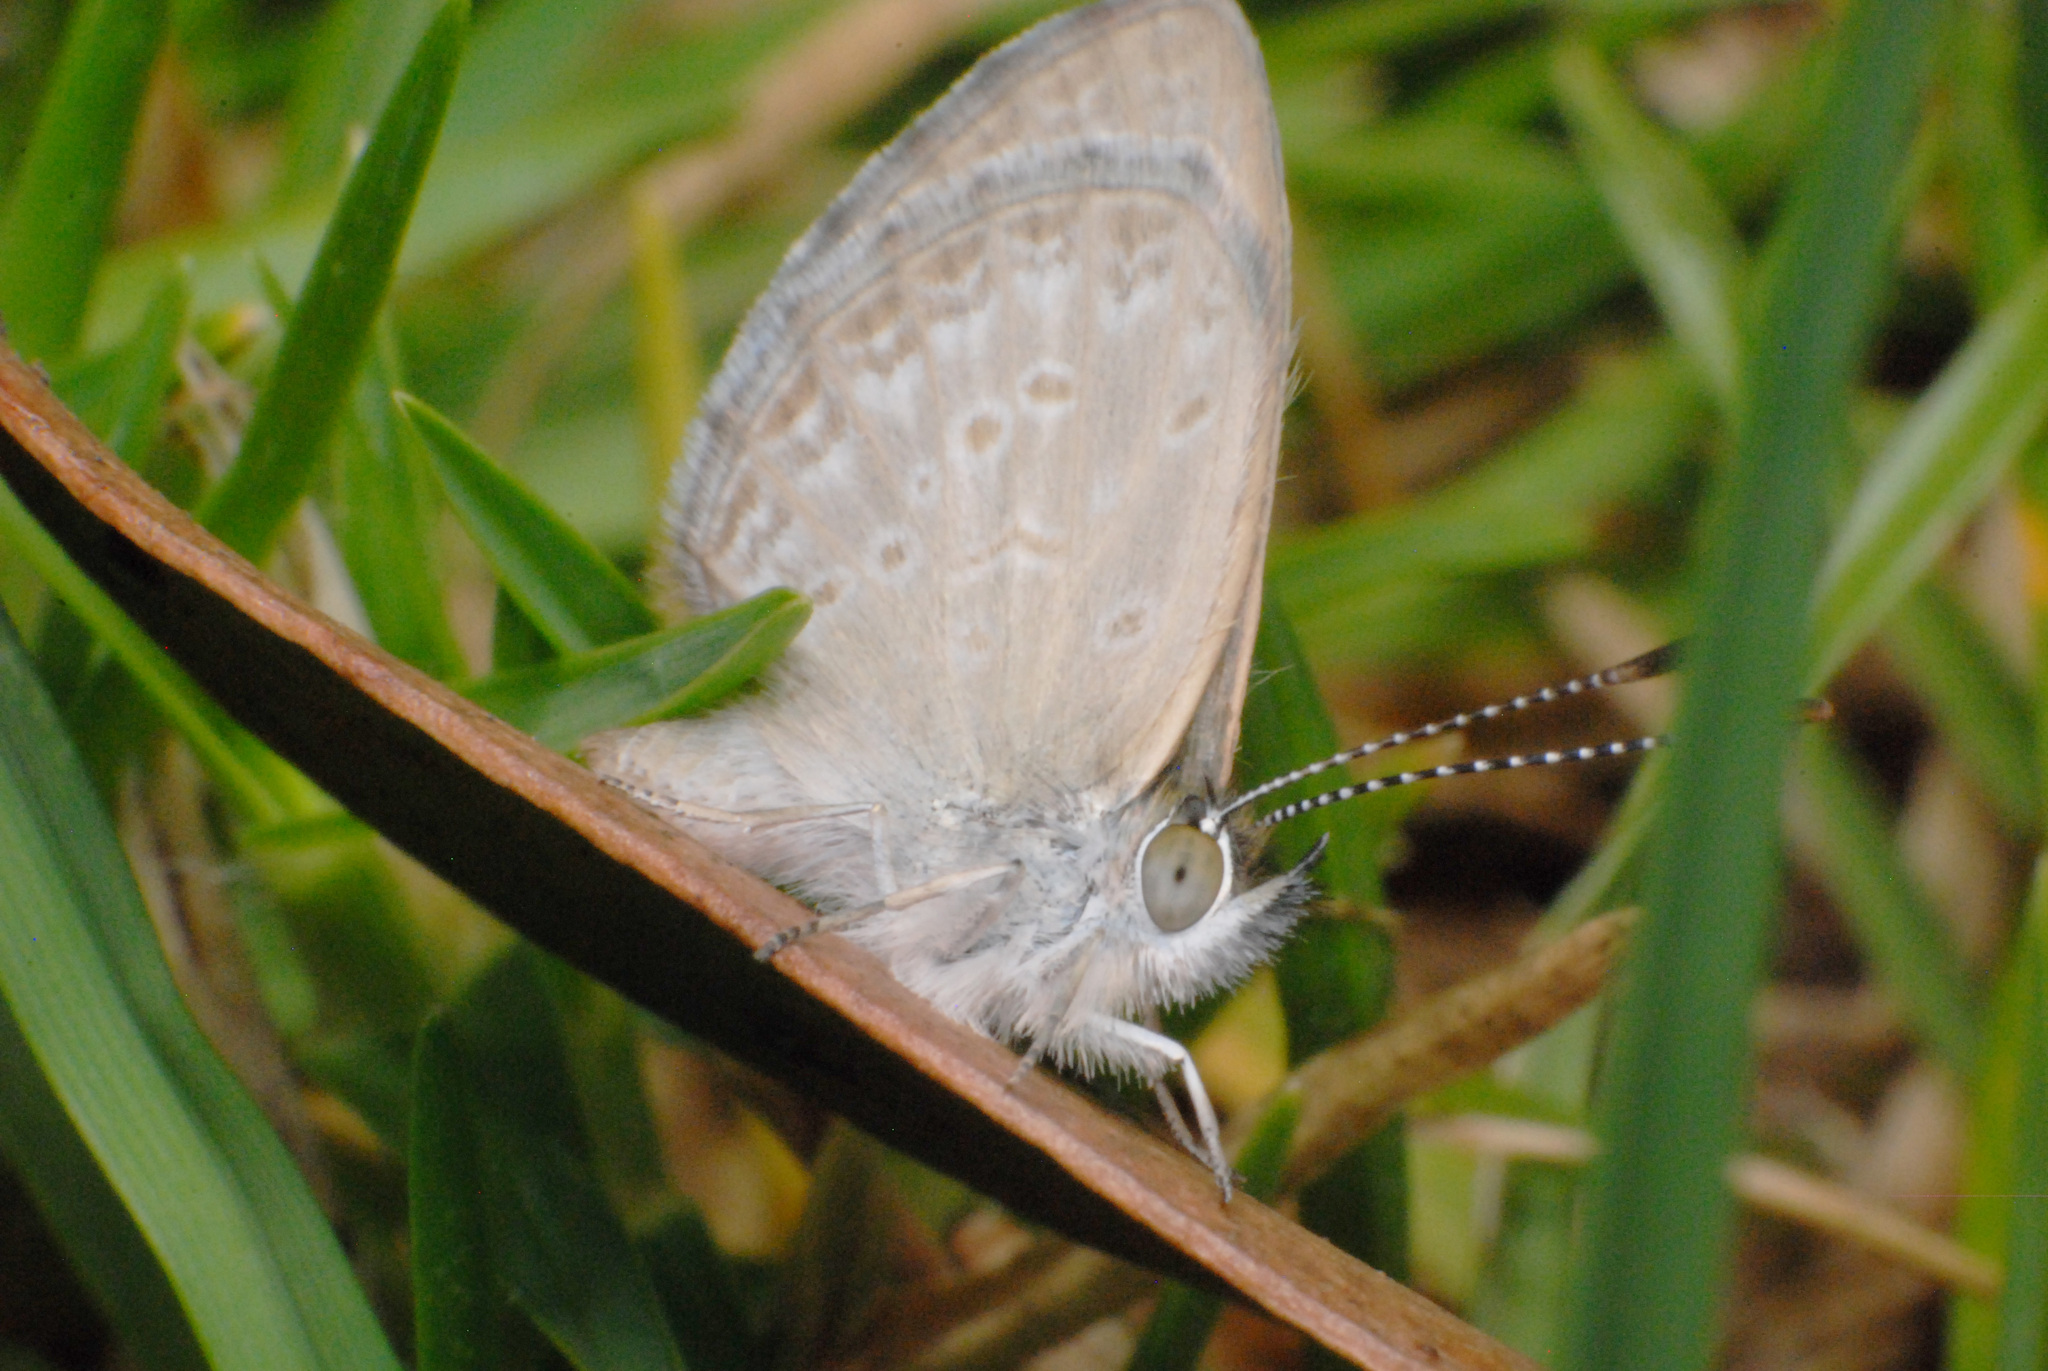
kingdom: Animalia
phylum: Arthropoda
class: Insecta
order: Lepidoptera
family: Lycaenidae
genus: Zizina
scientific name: Zizina otis
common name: Lesser grass blue
